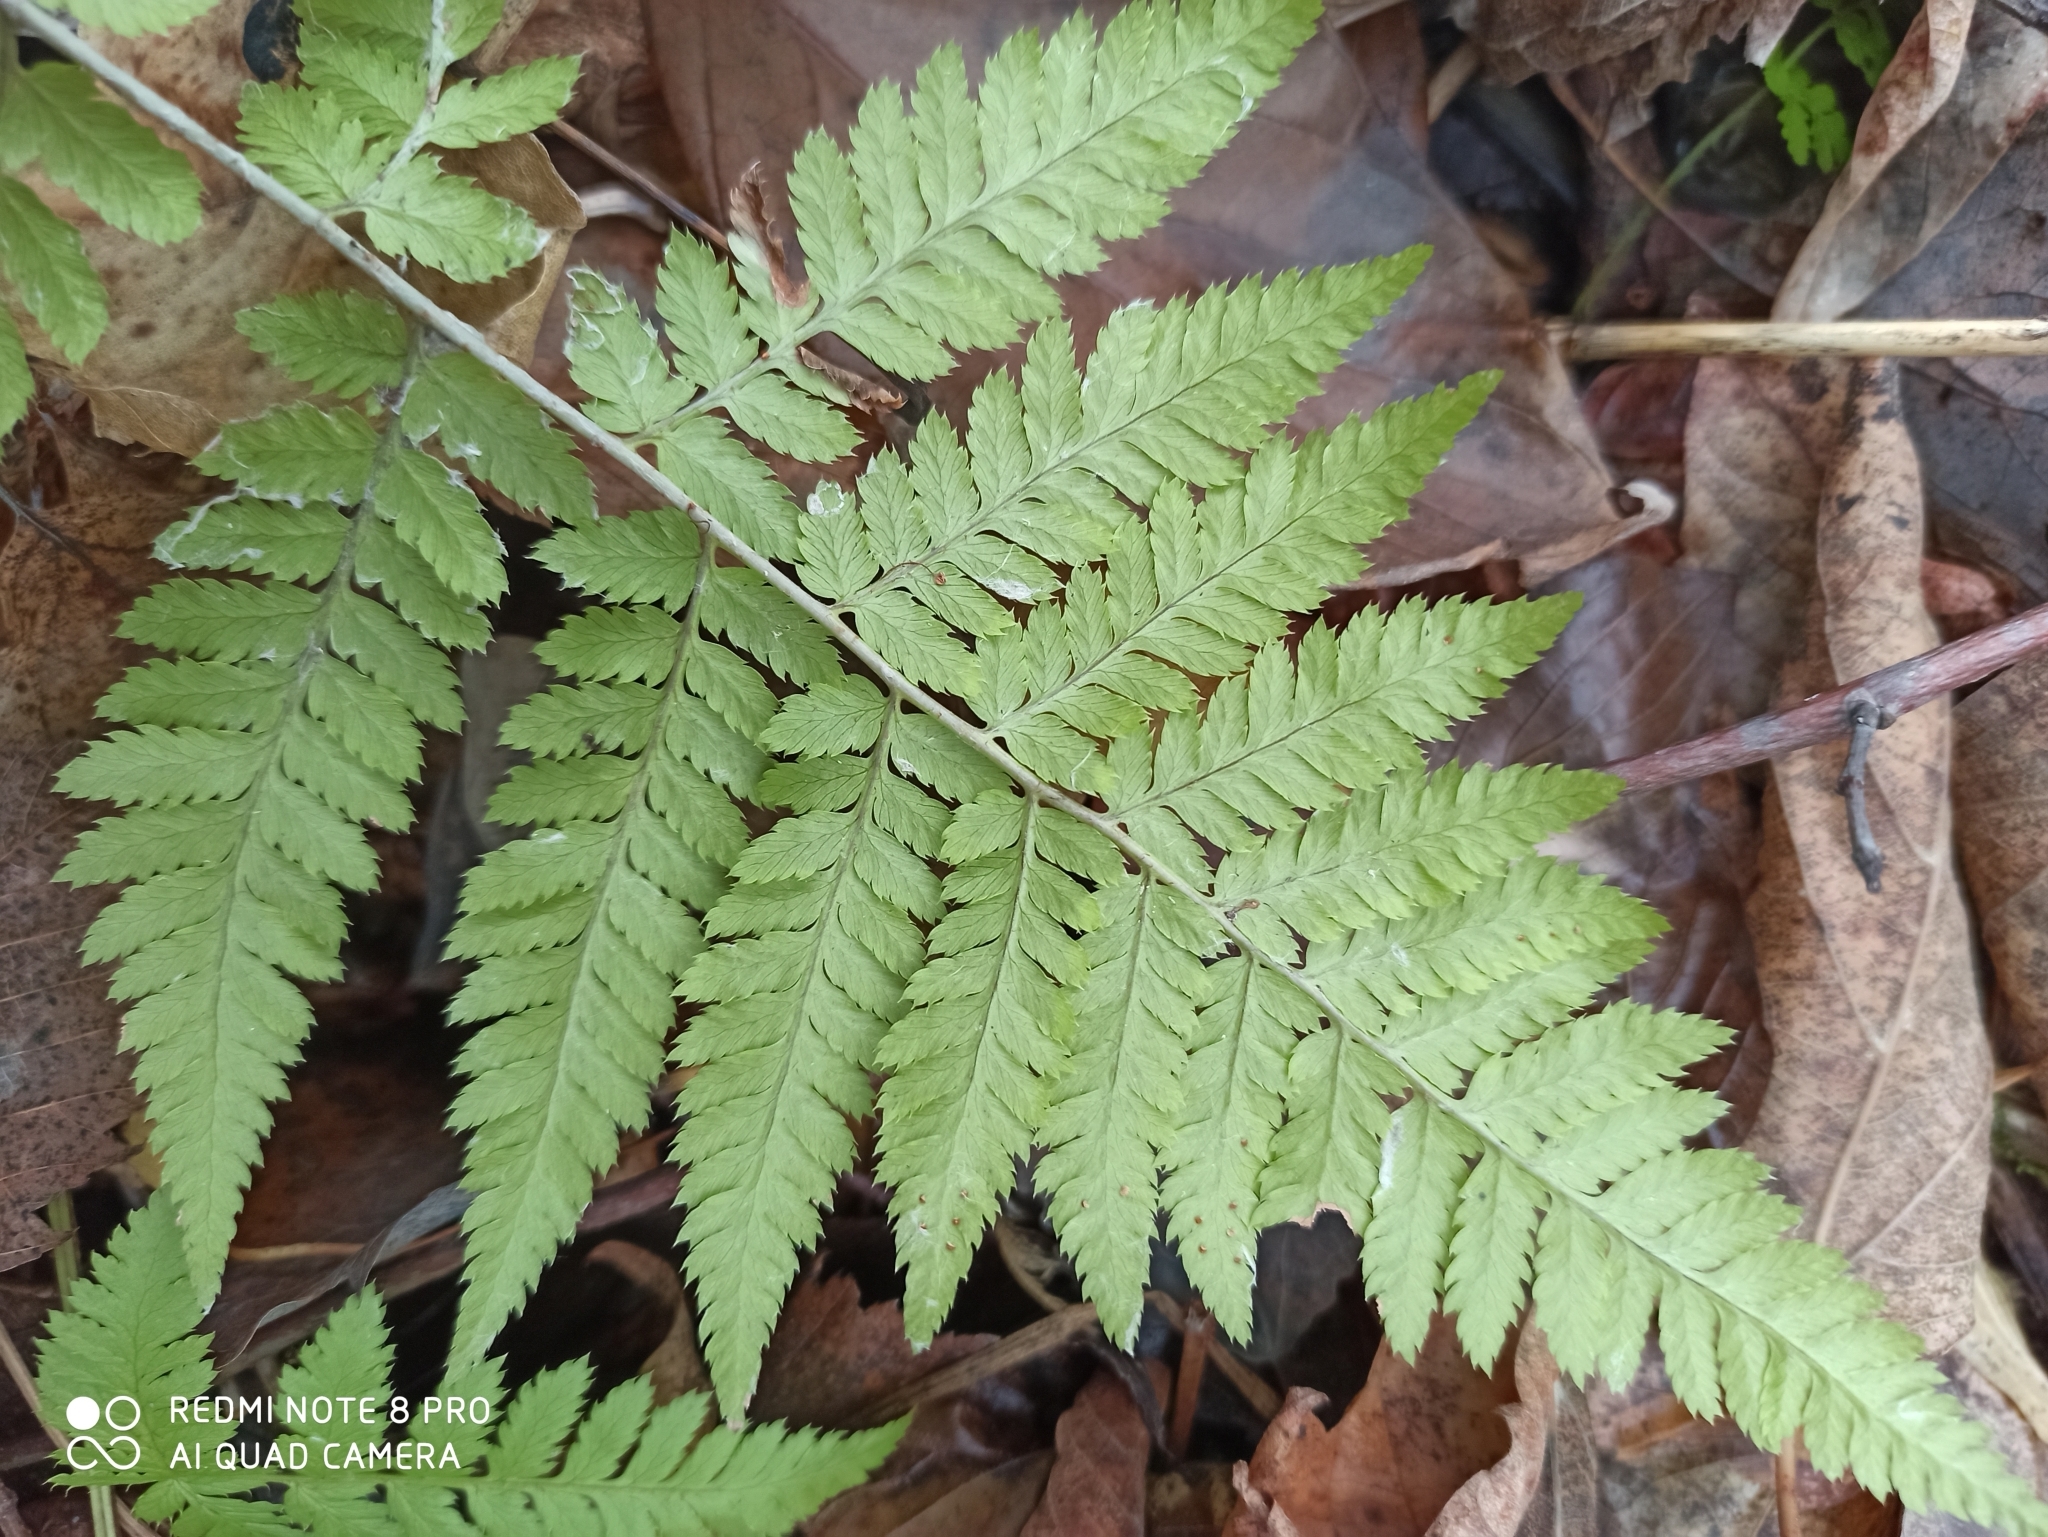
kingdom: Plantae
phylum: Tracheophyta
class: Polypodiopsida
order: Polypodiales
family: Dryopteridaceae
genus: Dryopteris
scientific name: Dryopteris carthusiana
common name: Narrow buckler-fern
